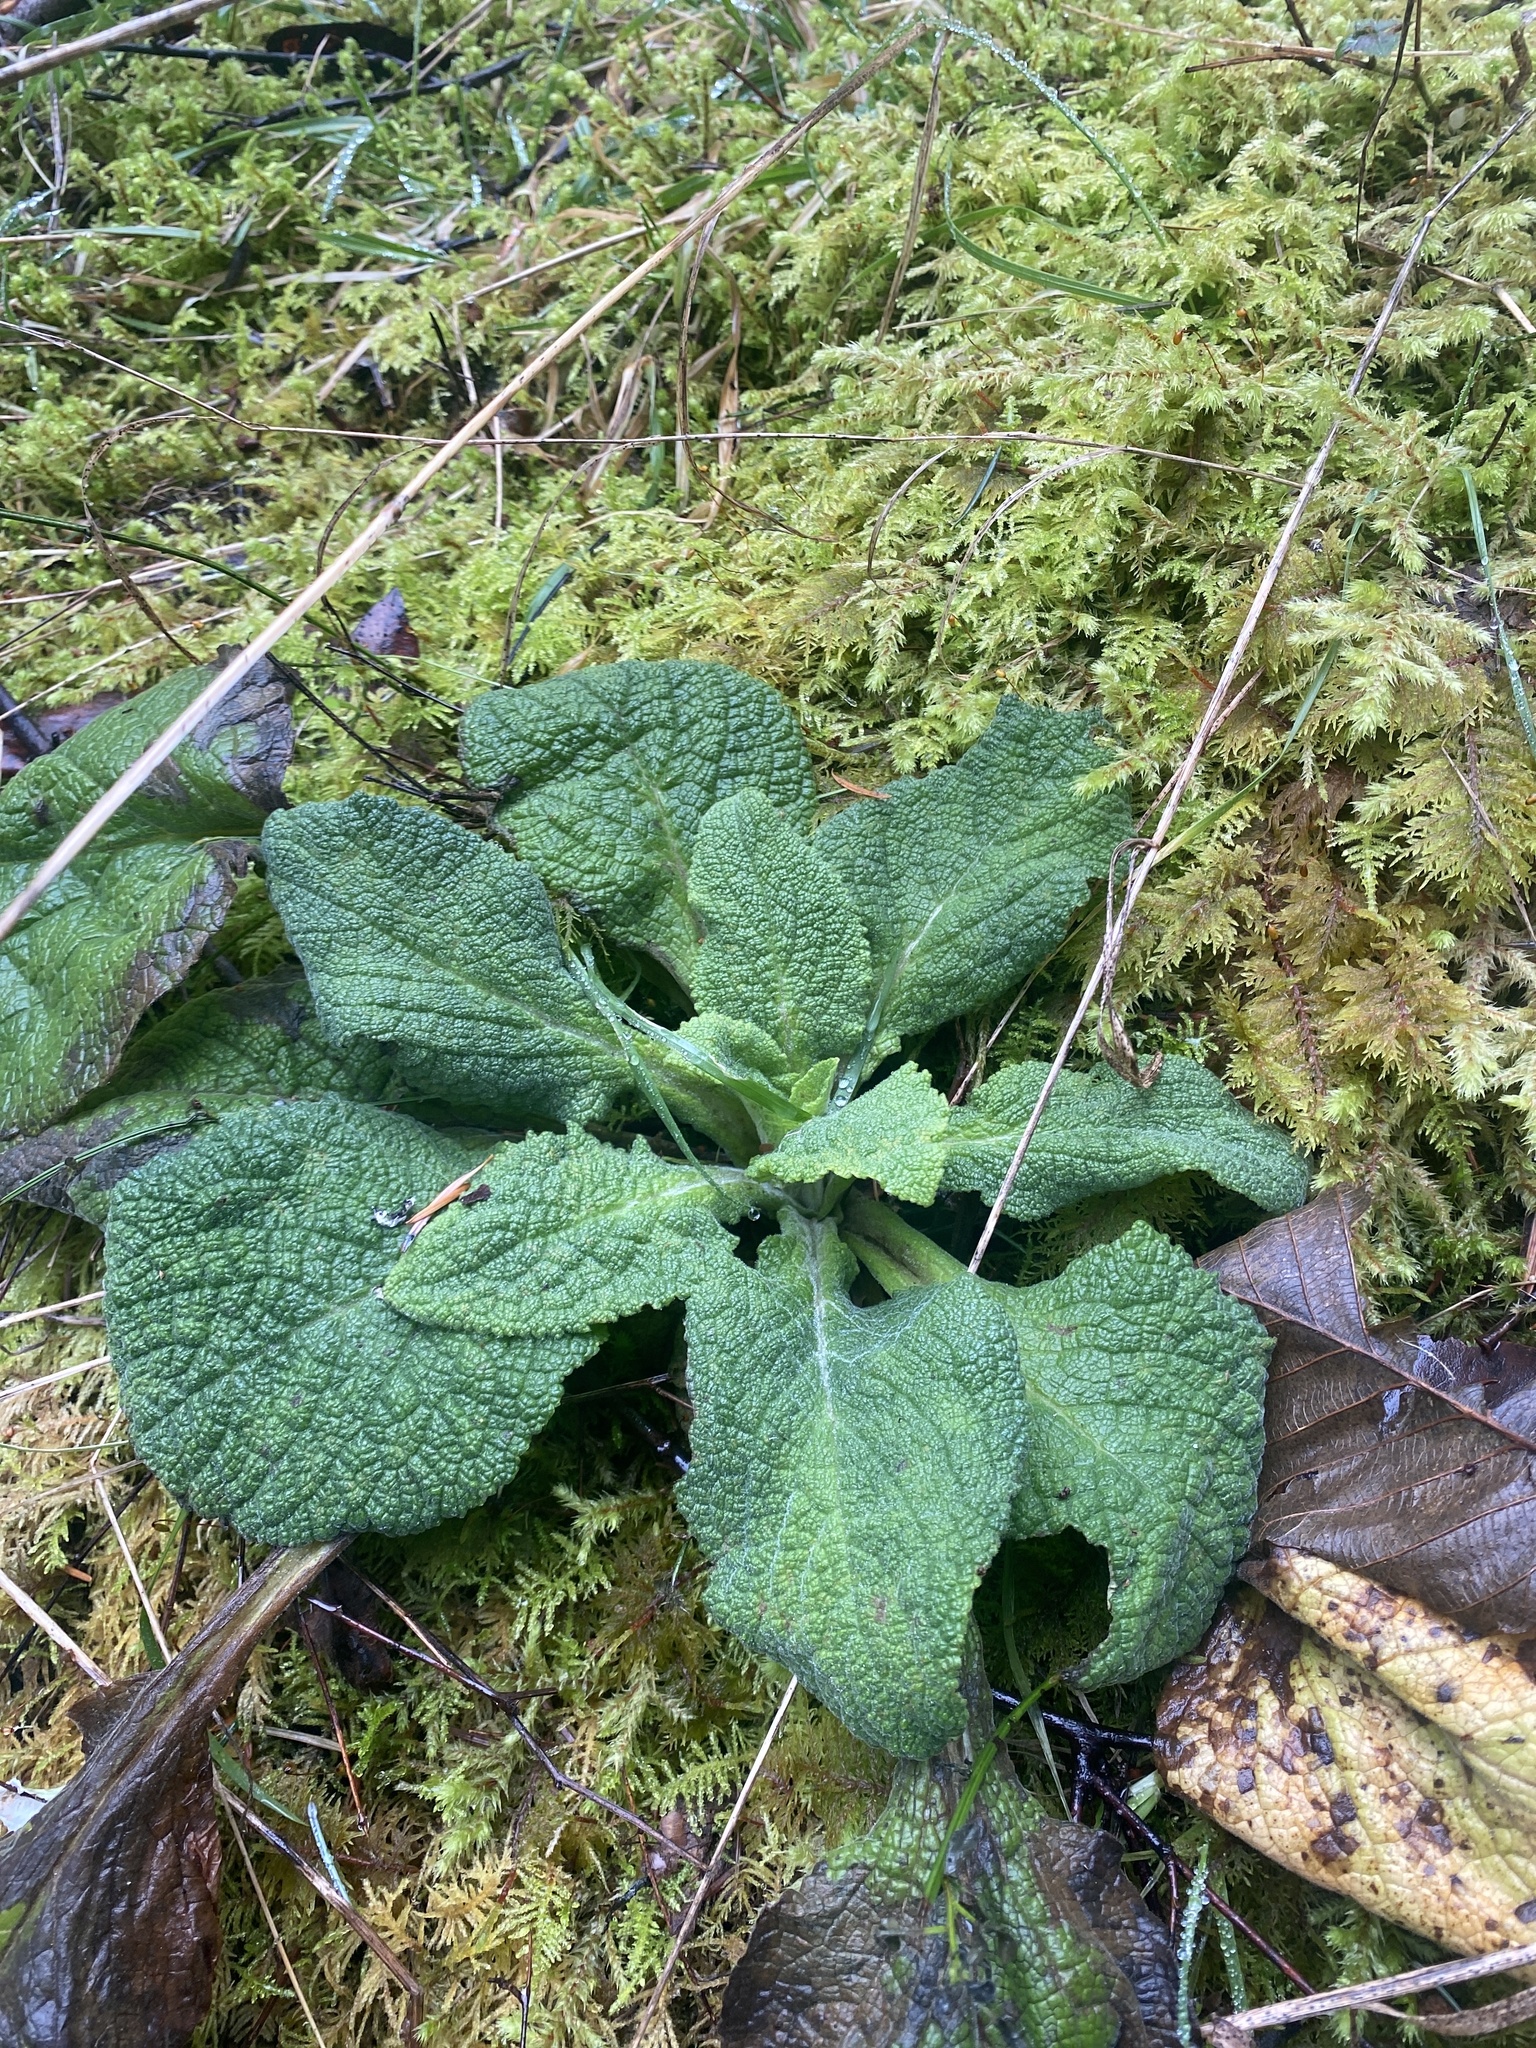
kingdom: Plantae
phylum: Tracheophyta
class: Magnoliopsida
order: Lamiales
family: Plantaginaceae
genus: Digitalis
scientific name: Digitalis purpurea
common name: Foxglove
